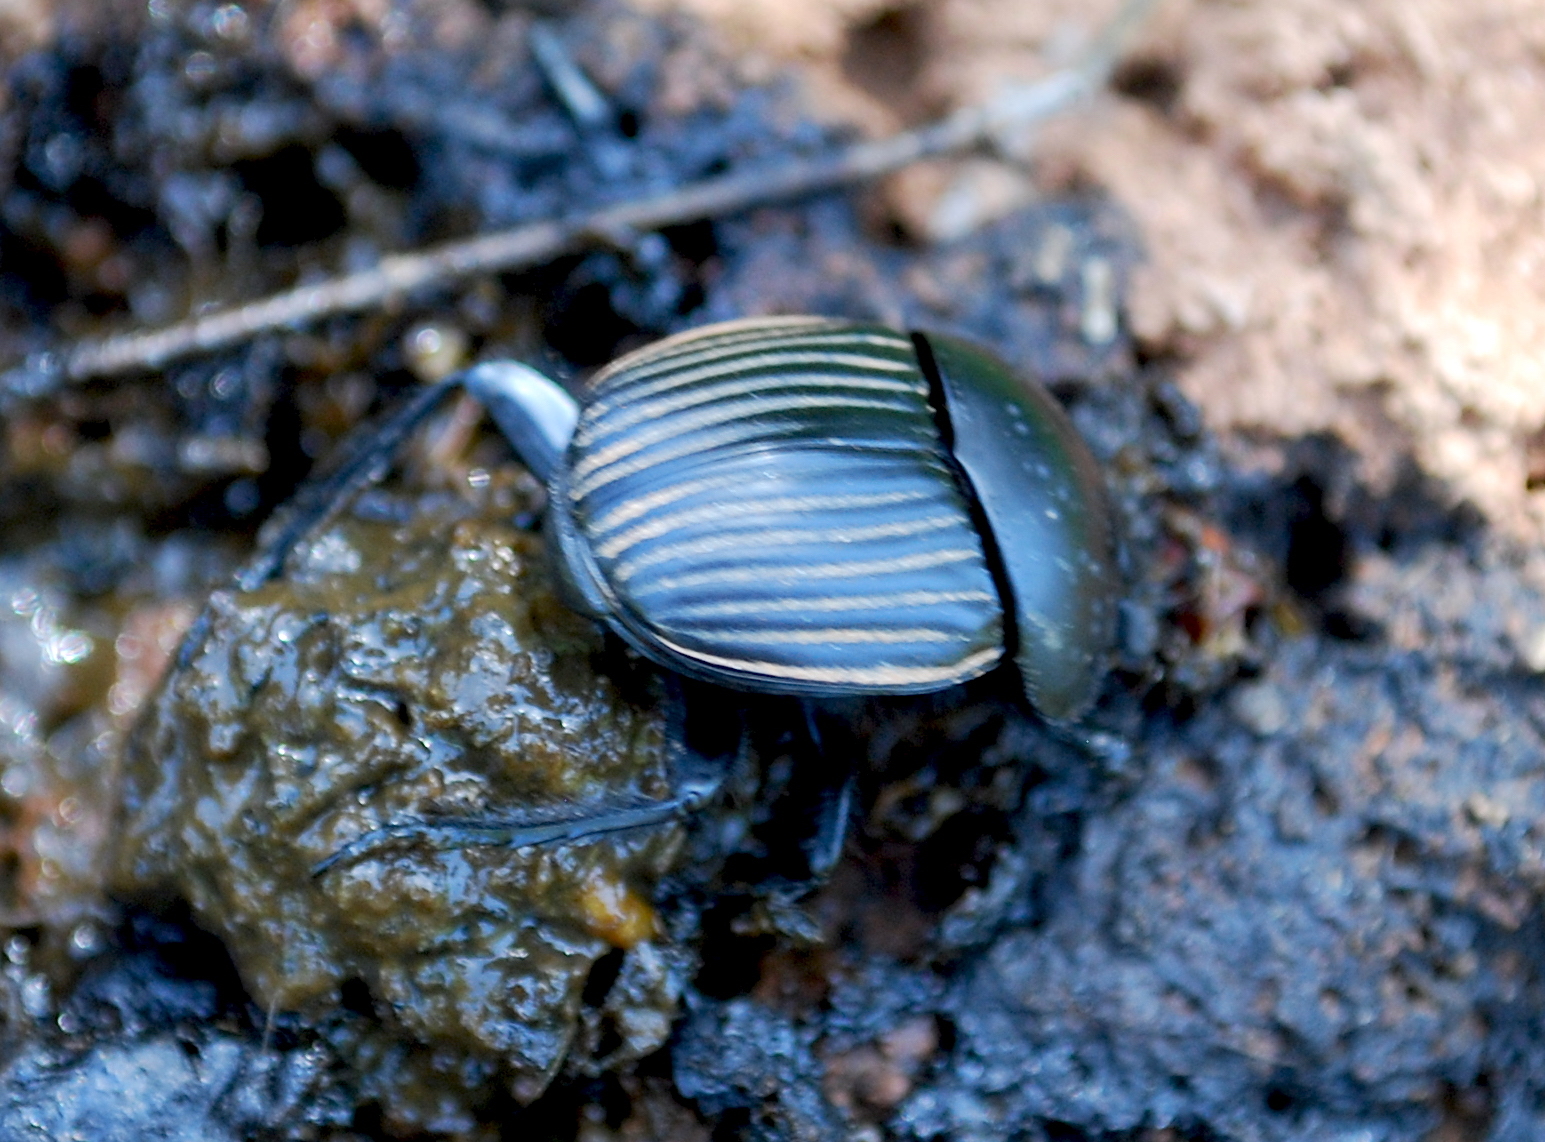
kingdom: Animalia
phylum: Arthropoda
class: Insecta
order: Coleoptera
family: Scarabaeidae
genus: Ateuchetus
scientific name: Ateuchetus laticollis
